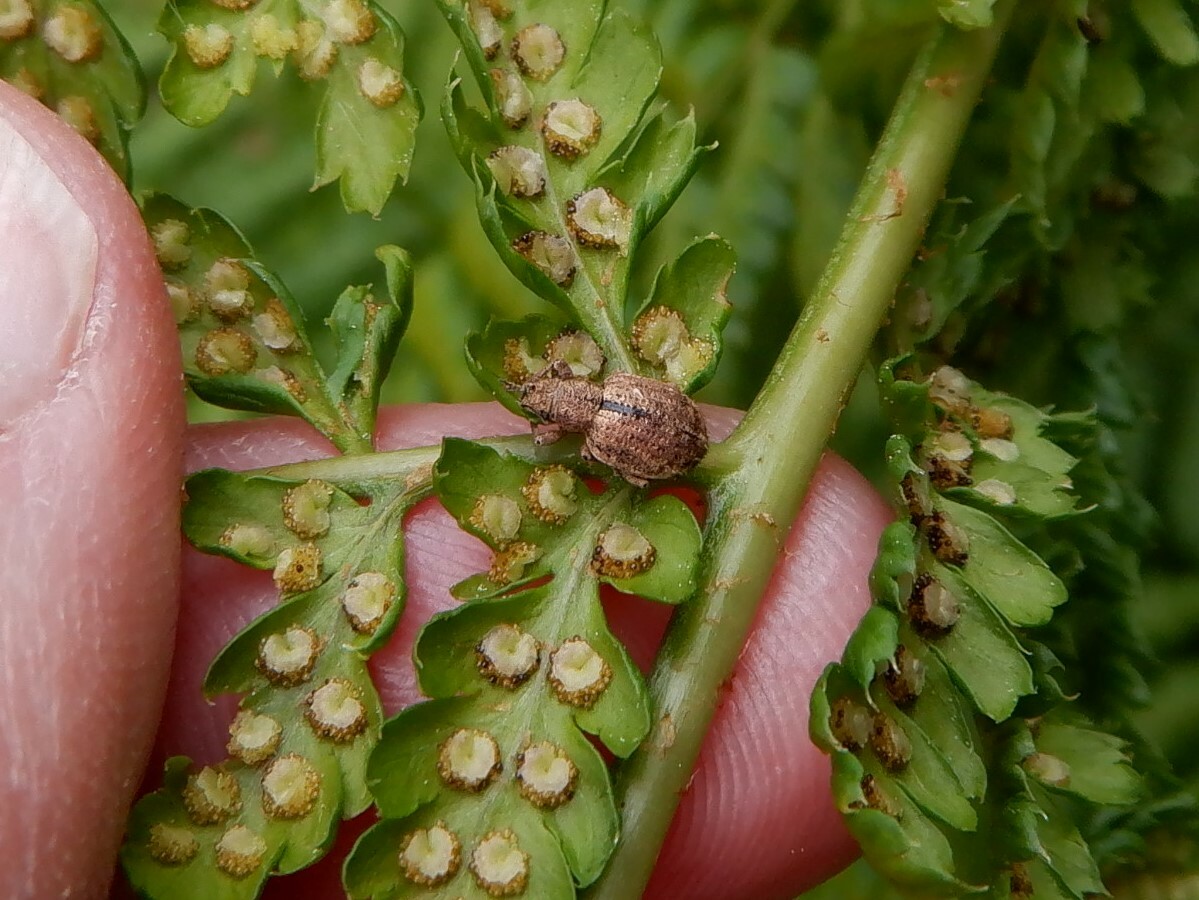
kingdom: Animalia
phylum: Arthropoda
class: Insecta
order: Coleoptera
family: Curculionidae
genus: Strophosoma
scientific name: Strophosoma melanogrammum
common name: Weevil
